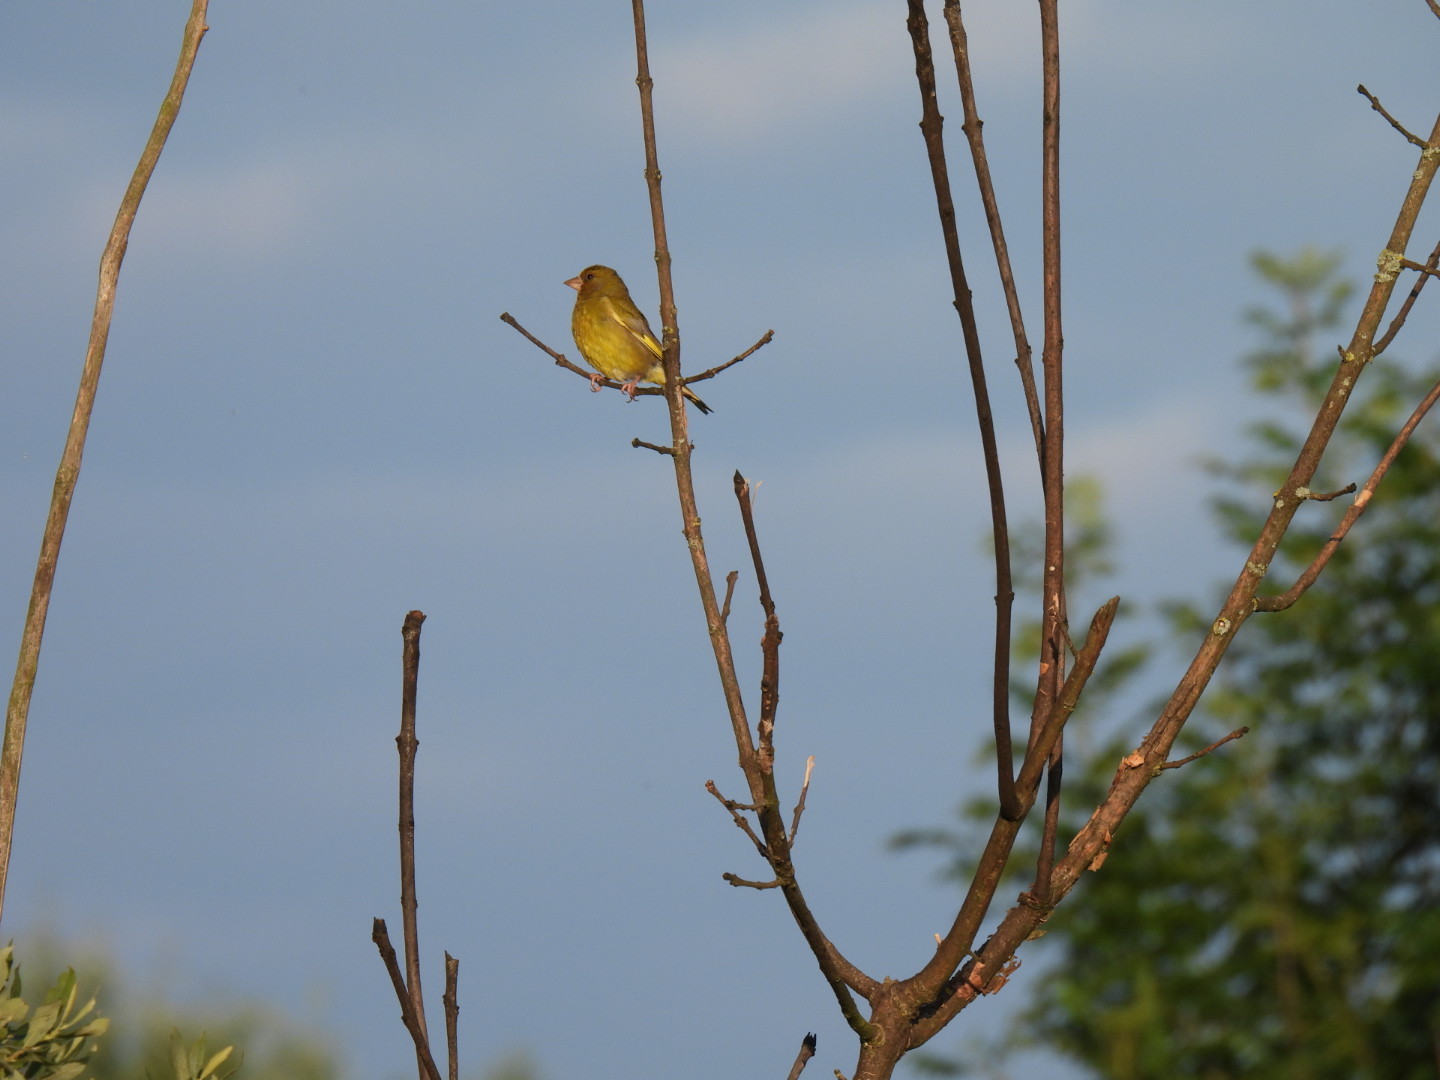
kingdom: Plantae
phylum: Tracheophyta
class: Liliopsida
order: Poales
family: Poaceae
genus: Chloris
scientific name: Chloris chloris
